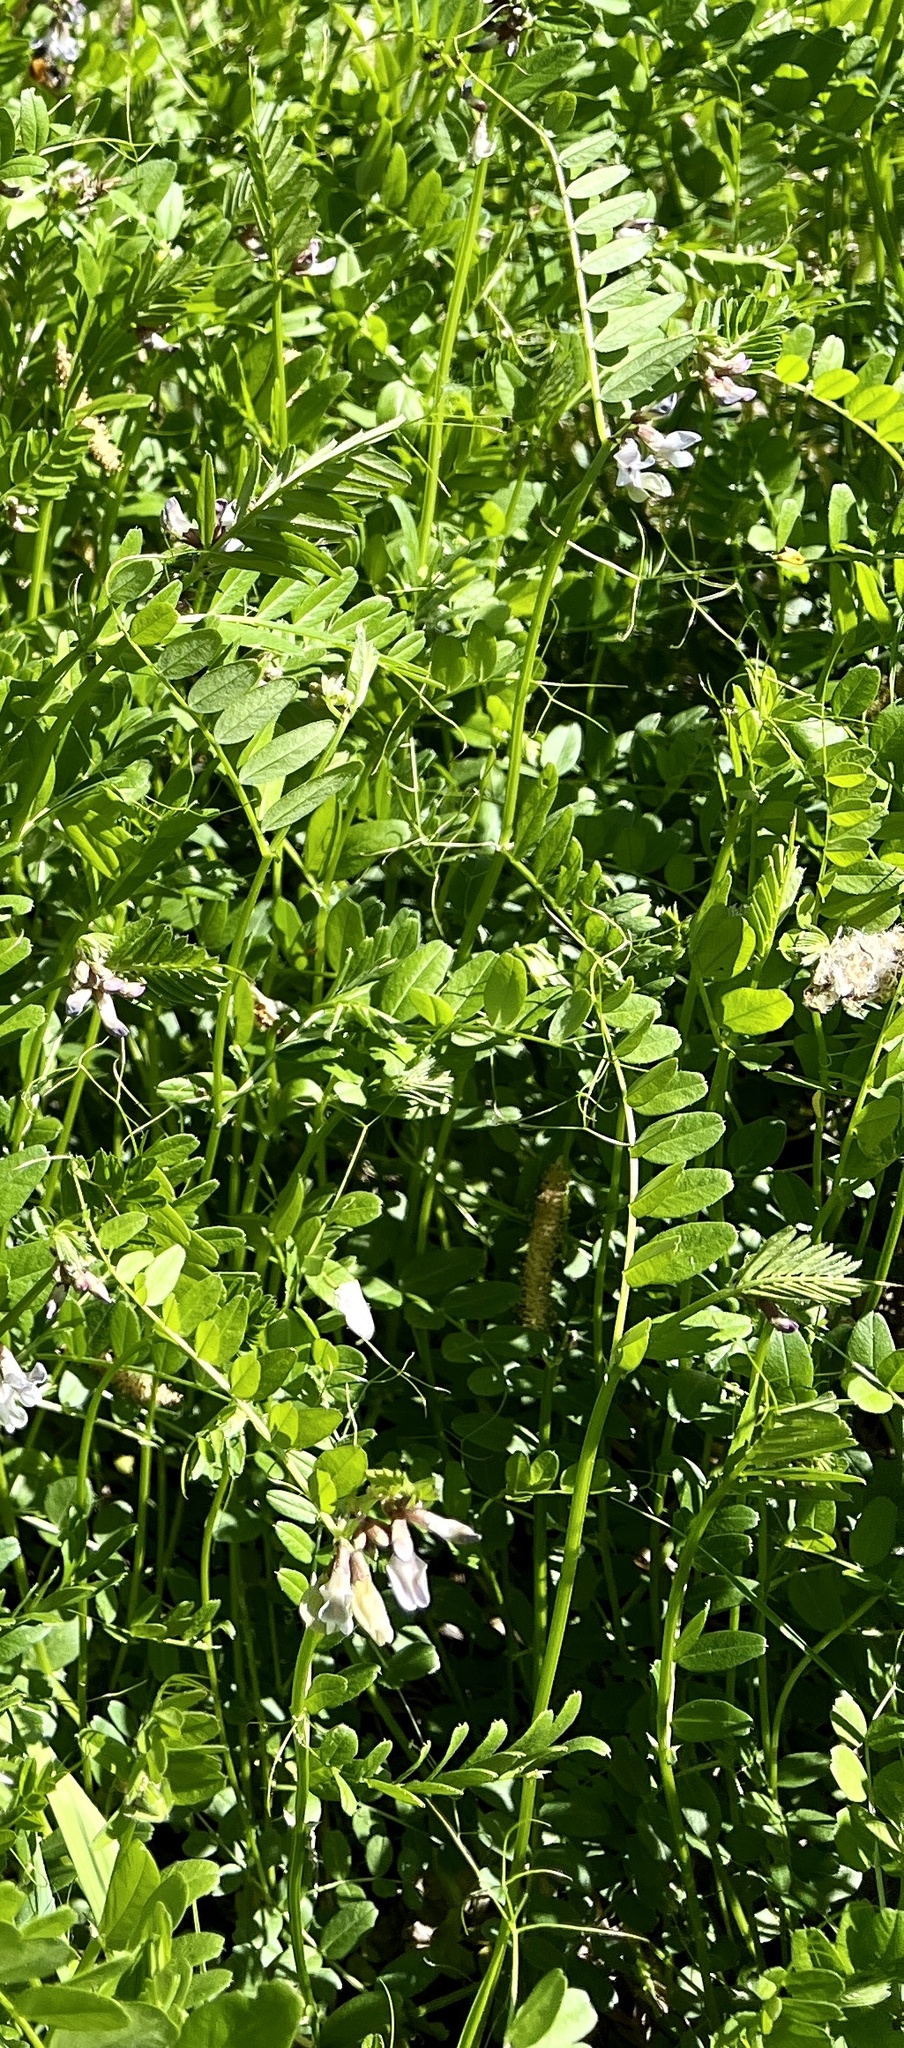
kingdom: Plantae
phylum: Tracheophyta
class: Magnoliopsida
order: Fabales
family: Fabaceae
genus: Vicia
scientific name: Vicia sepium
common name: Bush vetch
